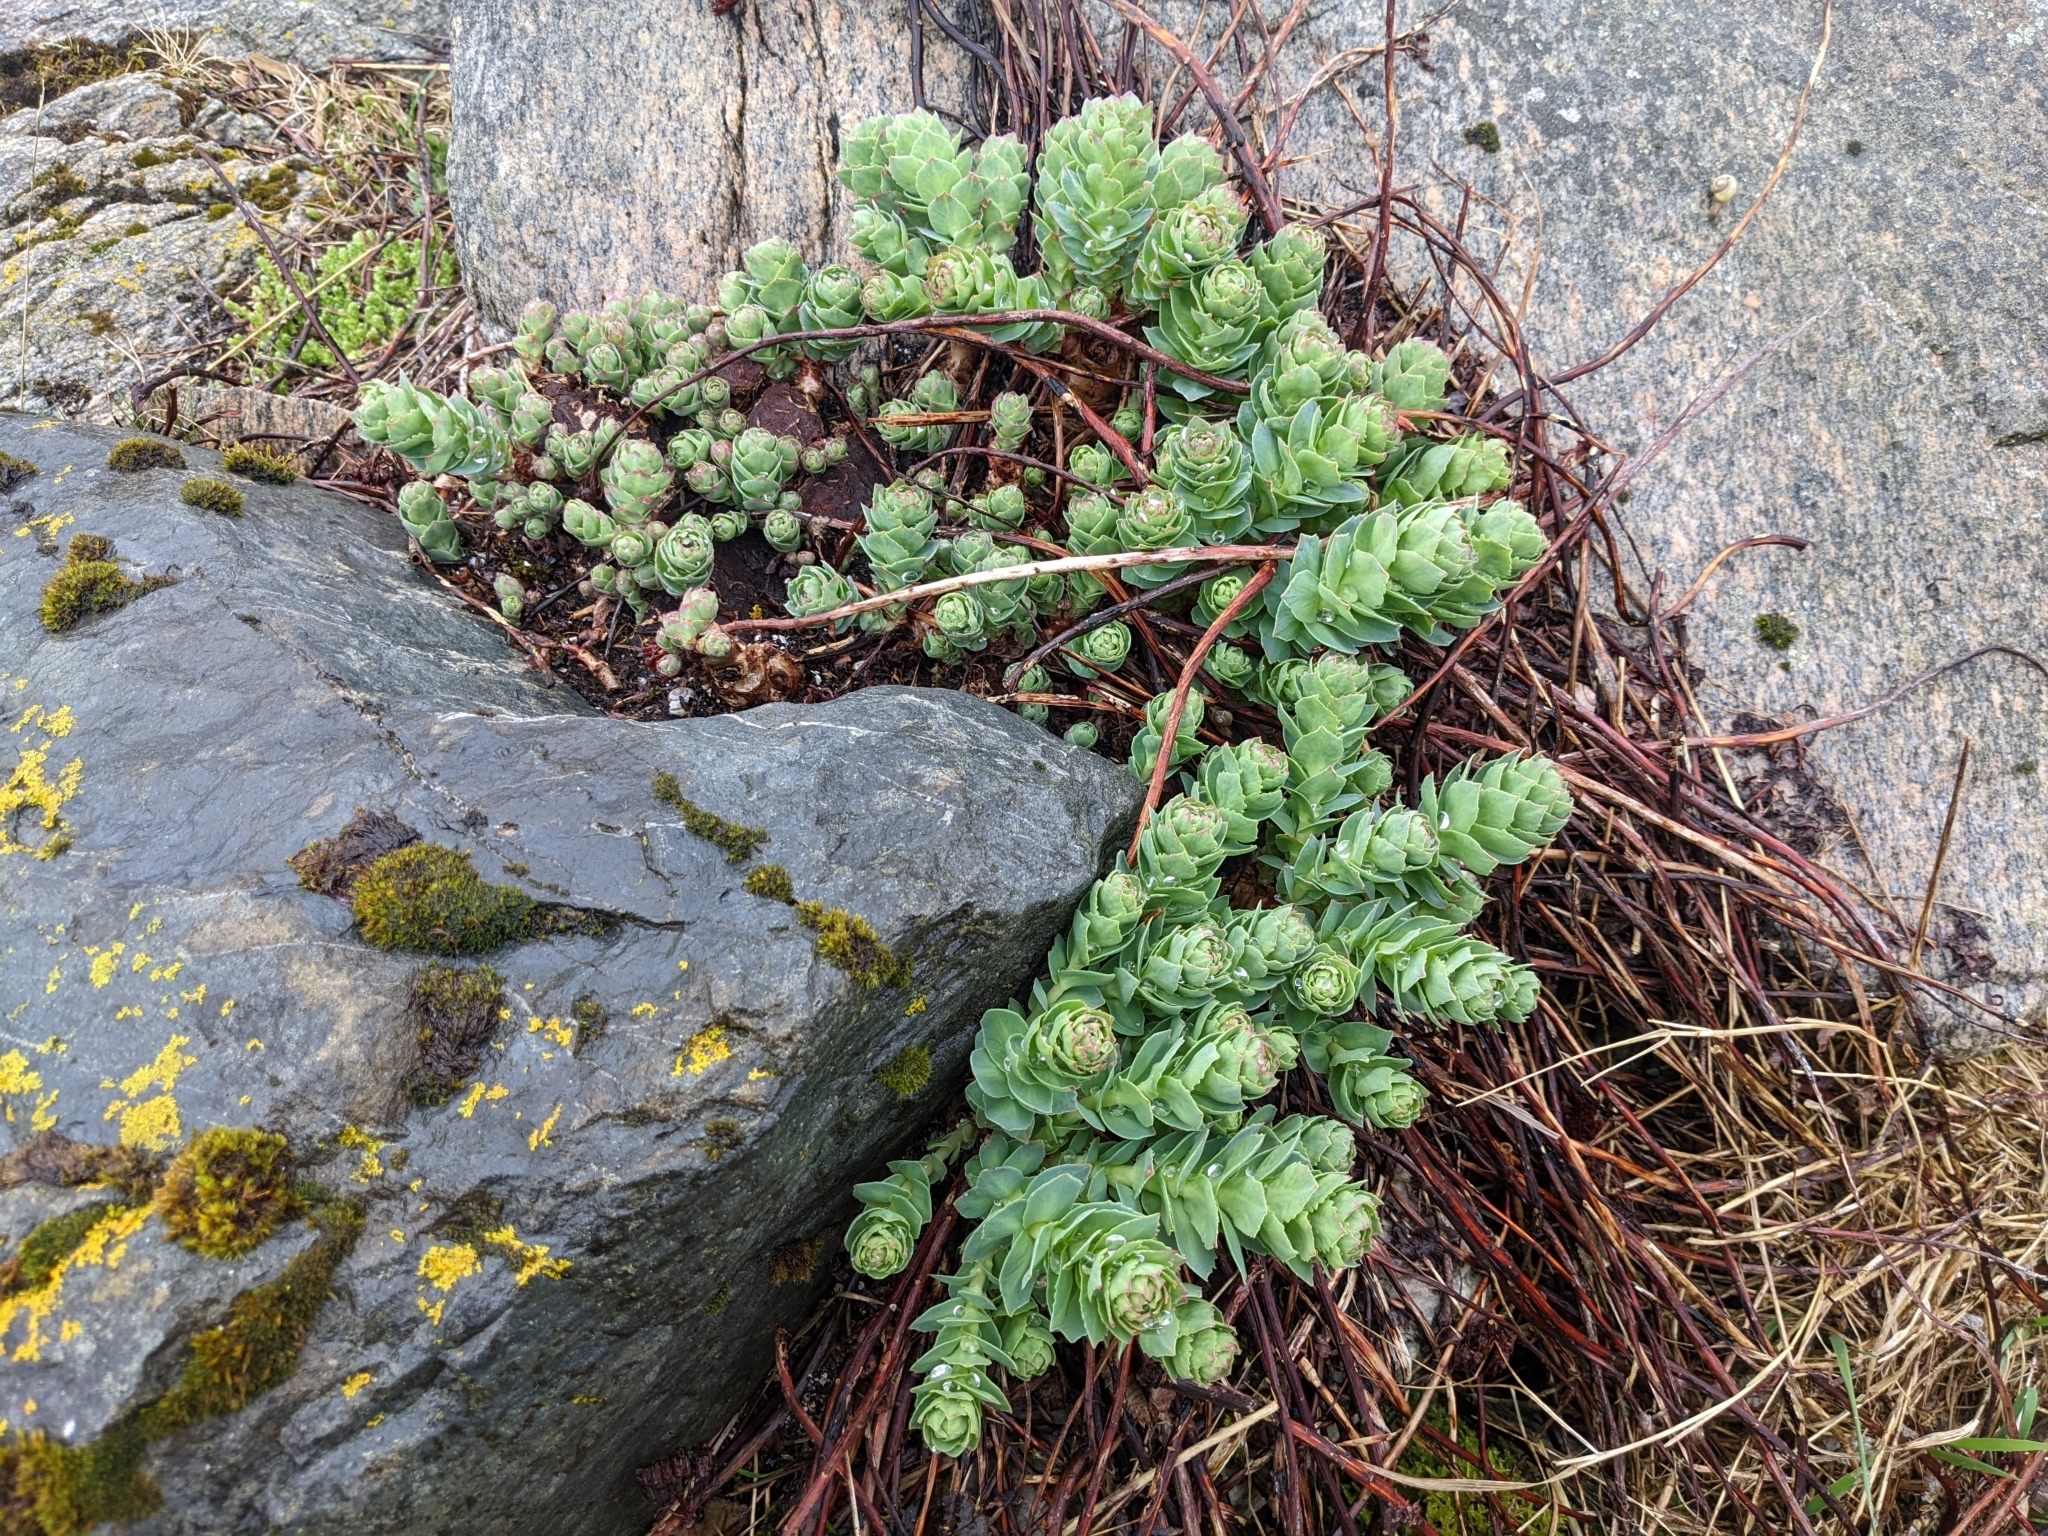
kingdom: Plantae
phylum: Tracheophyta
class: Magnoliopsida
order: Saxifragales
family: Crassulaceae
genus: Rhodiola
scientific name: Rhodiola rosea
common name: Roseroot
